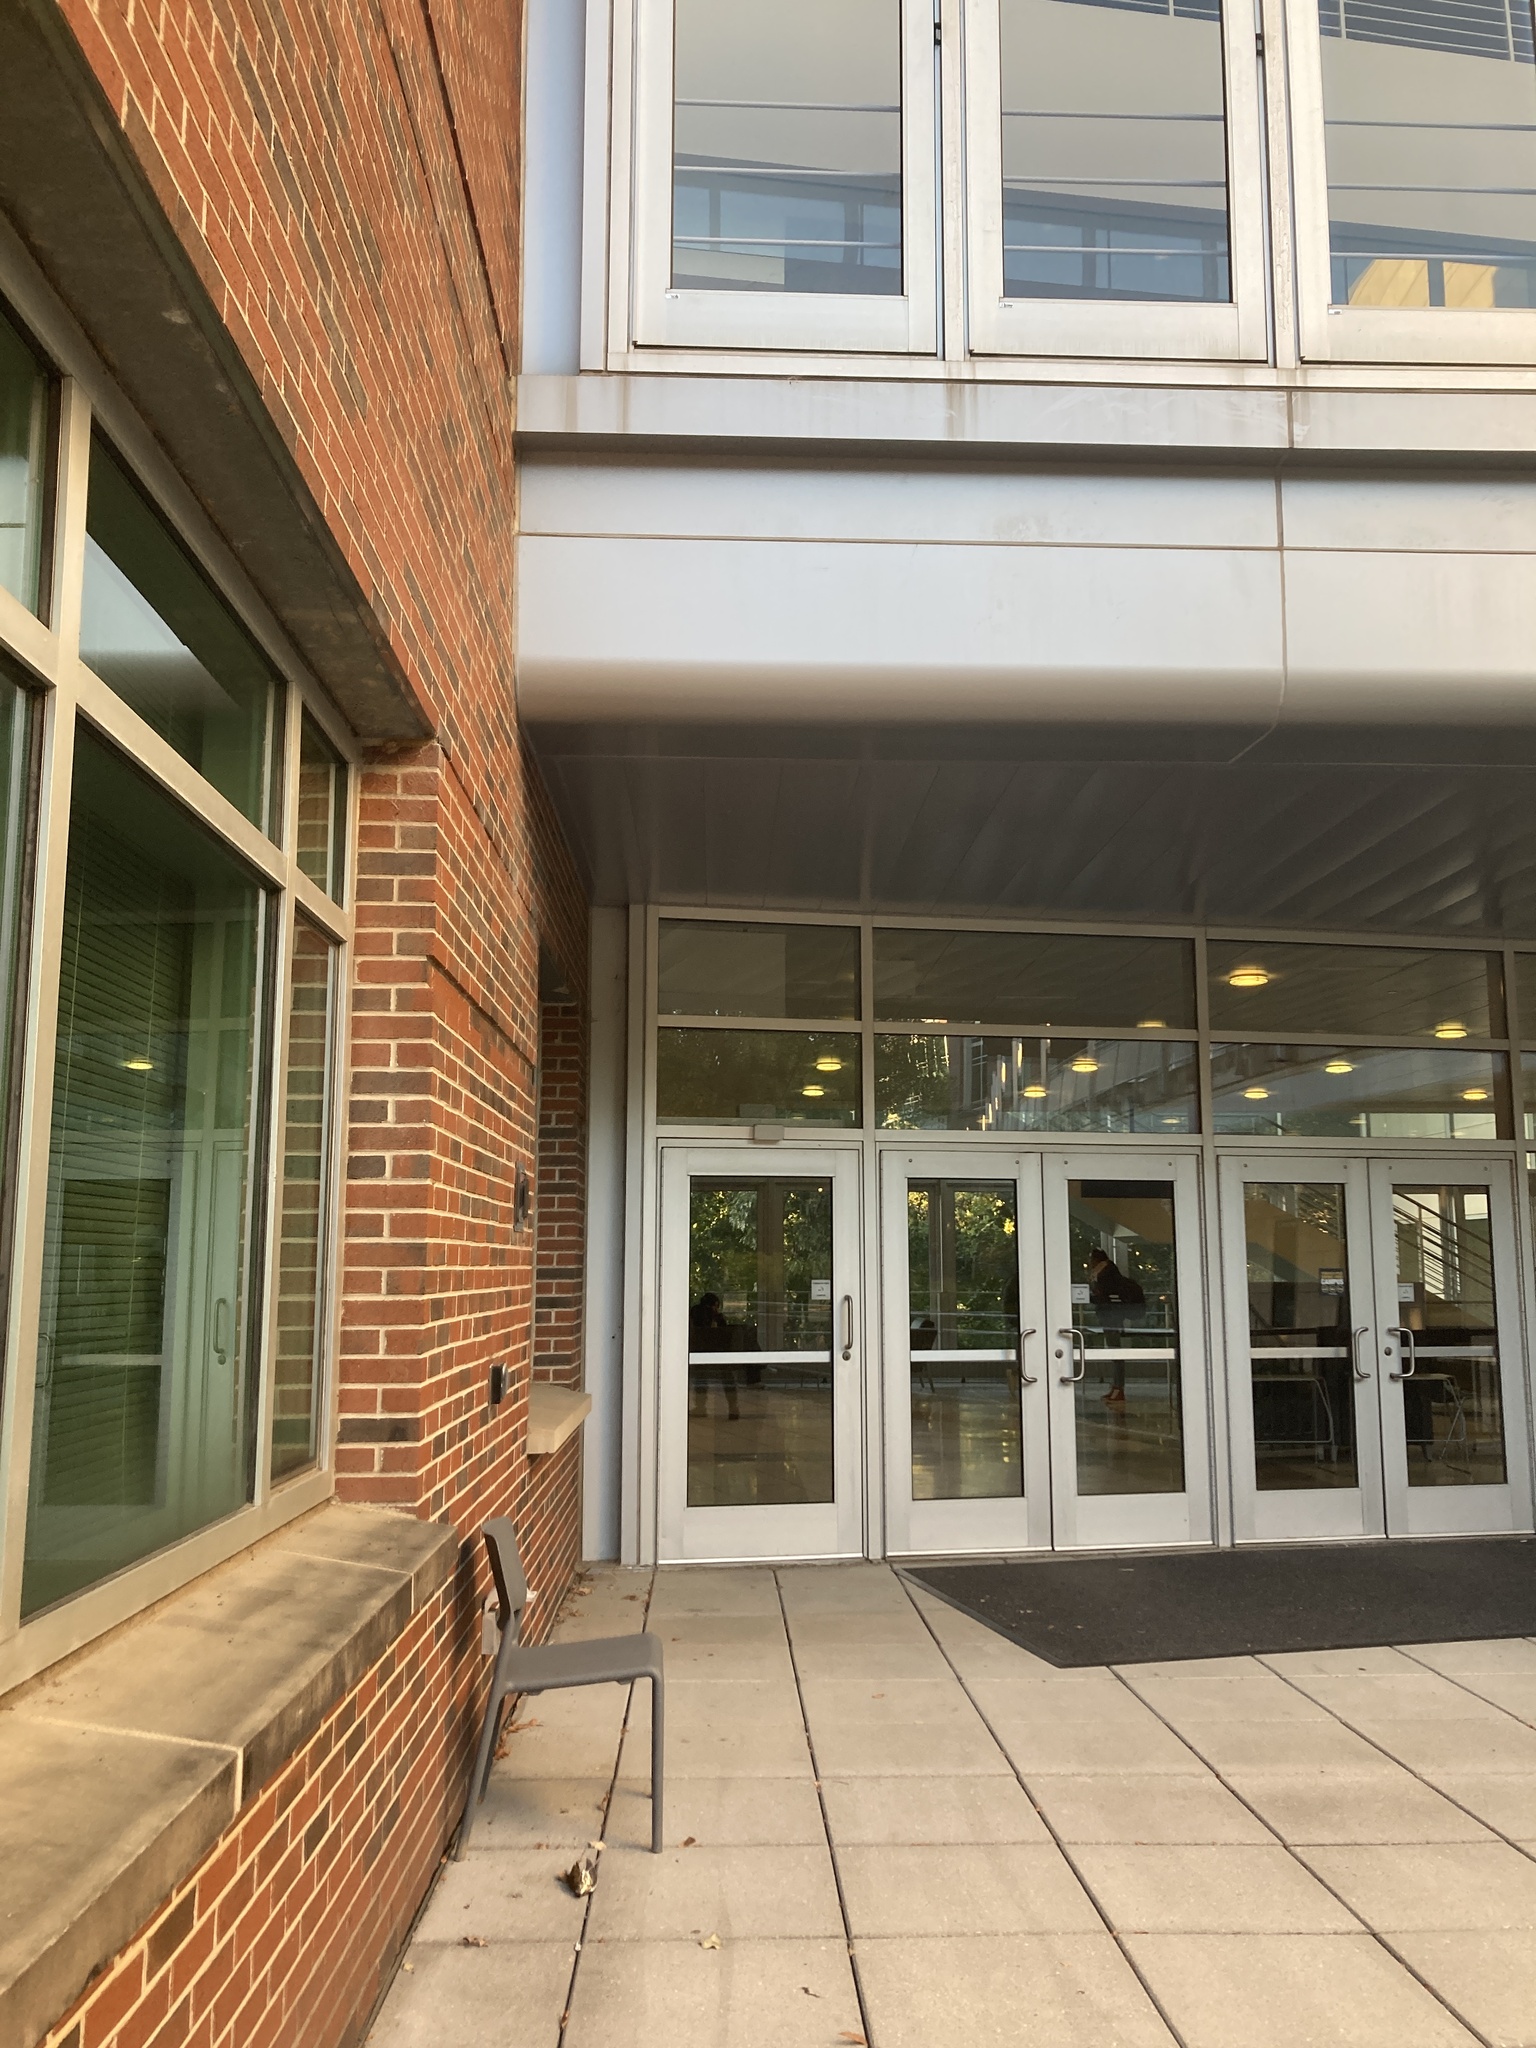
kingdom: Animalia
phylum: Chordata
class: Aves
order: Passeriformes
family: Turdidae
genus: Hylocichla
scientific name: Hylocichla mustelina
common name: Wood thrush
